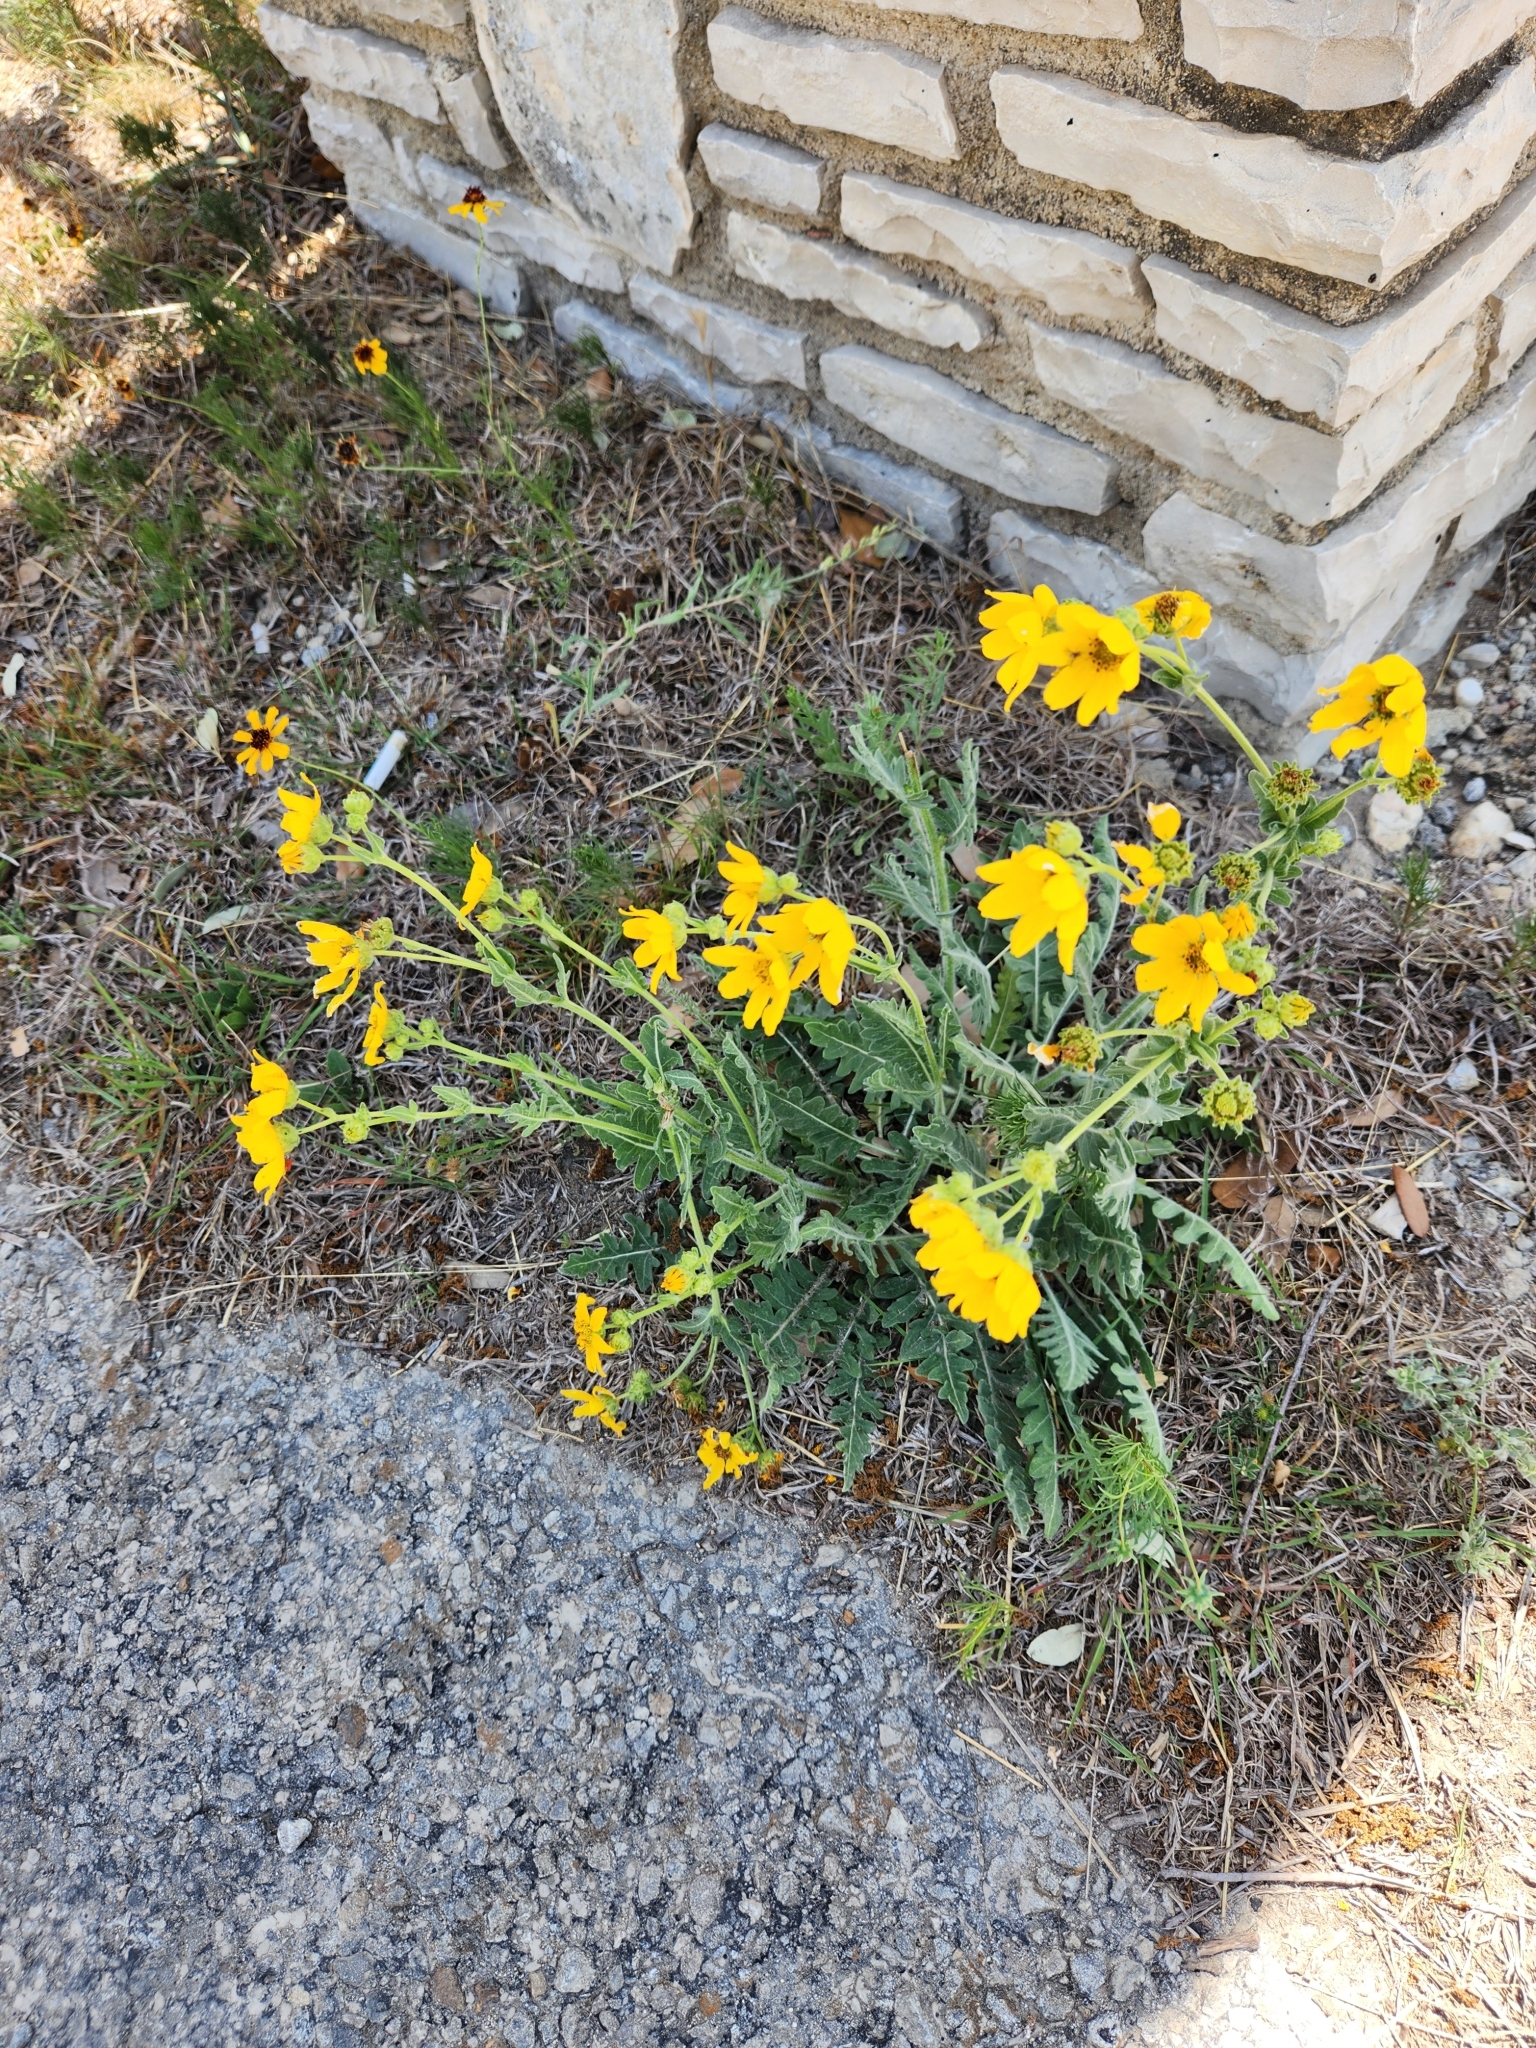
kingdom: Plantae
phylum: Tracheophyta
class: Magnoliopsida
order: Asterales
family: Asteraceae
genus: Engelmannia
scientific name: Engelmannia peristenia
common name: Engelmann's daisy
